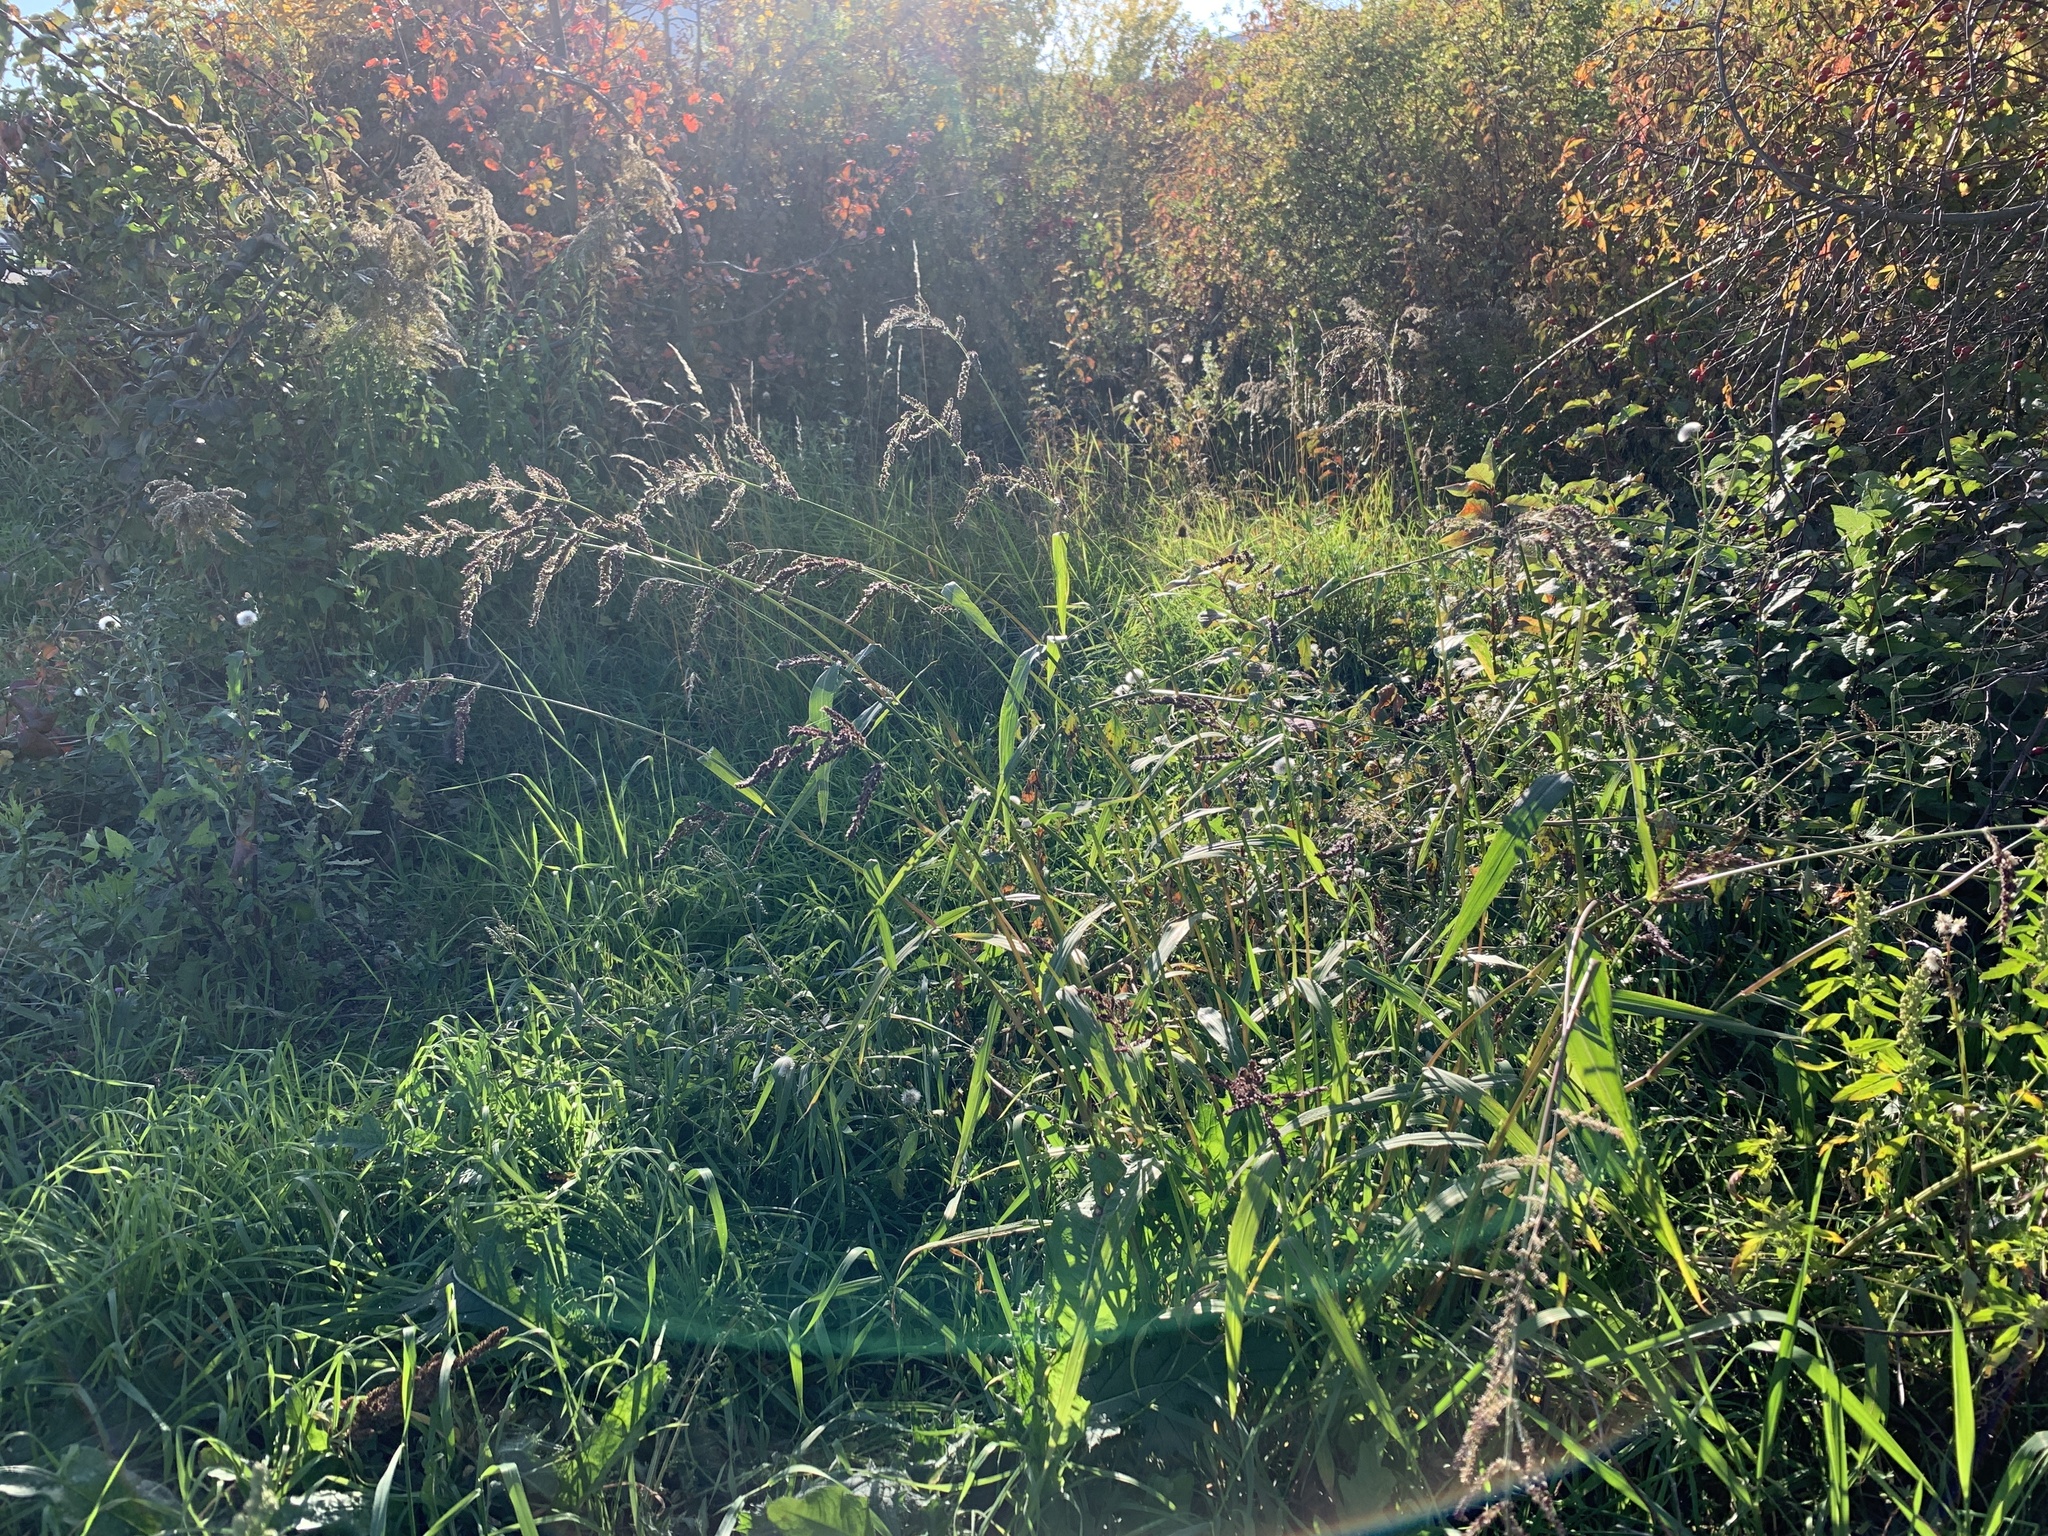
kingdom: Plantae
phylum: Tracheophyta
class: Liliopsida
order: Poales
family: Poaceae
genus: Echinochloa
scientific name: Echinochloa crus-galli
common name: Cockspur
